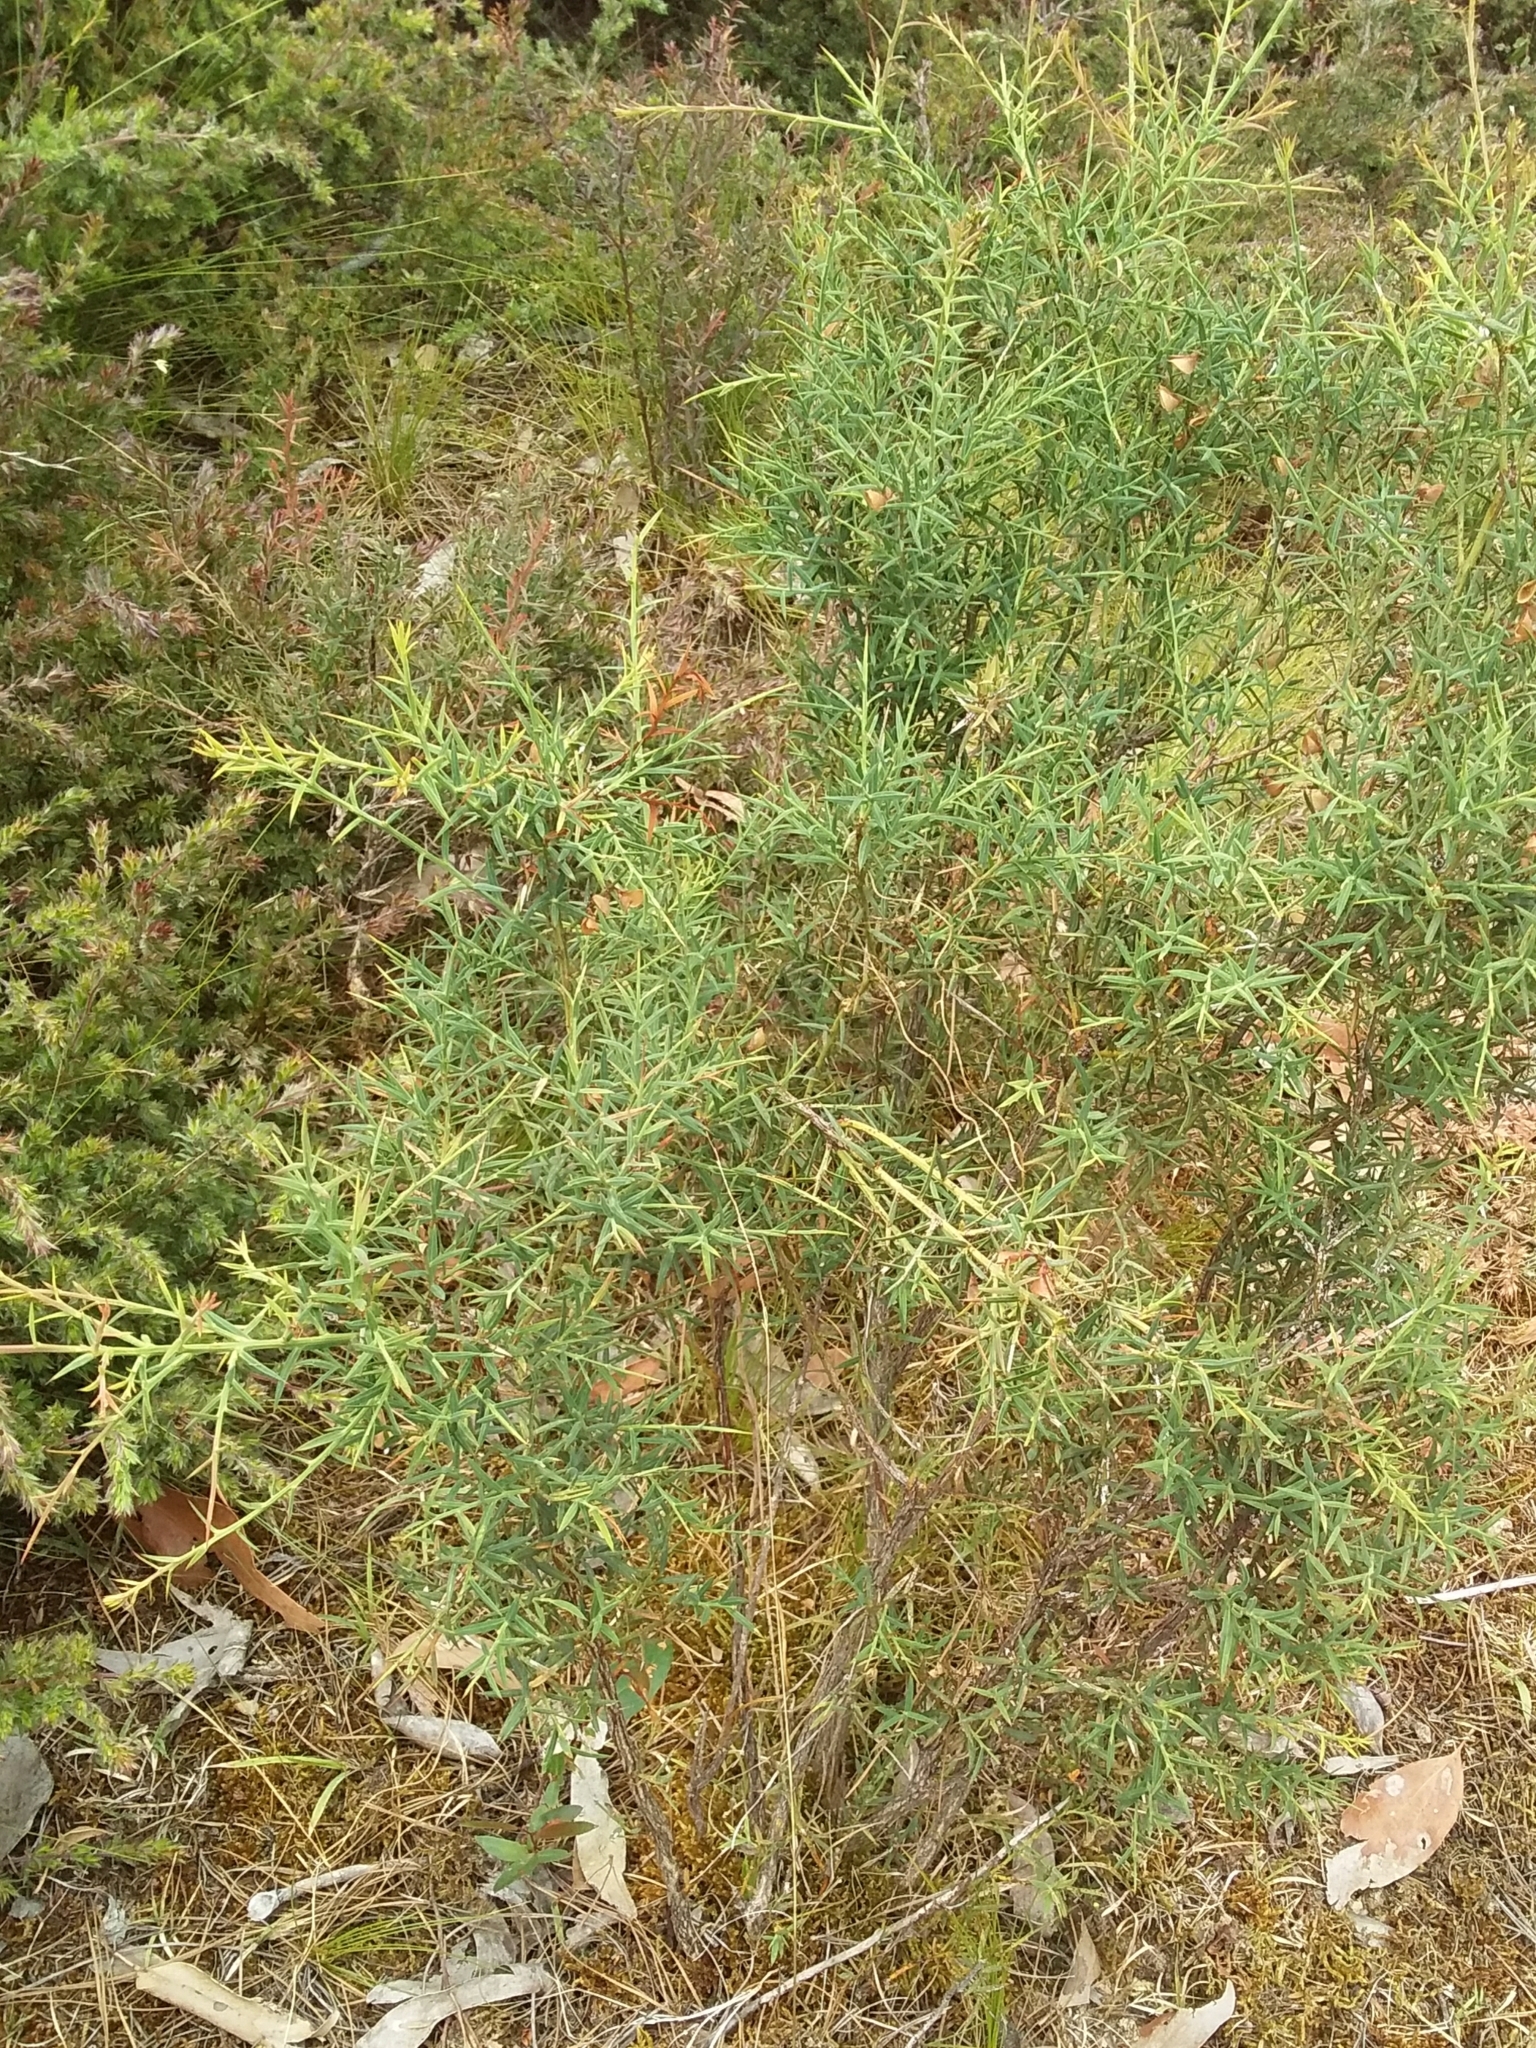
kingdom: Plantae
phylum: Tracheophyta
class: Magnoliopsida
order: Fabales
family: Fabaceae
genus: Daviesia
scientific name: Daviesia ulicifolia
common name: Gorse bitter-pea
